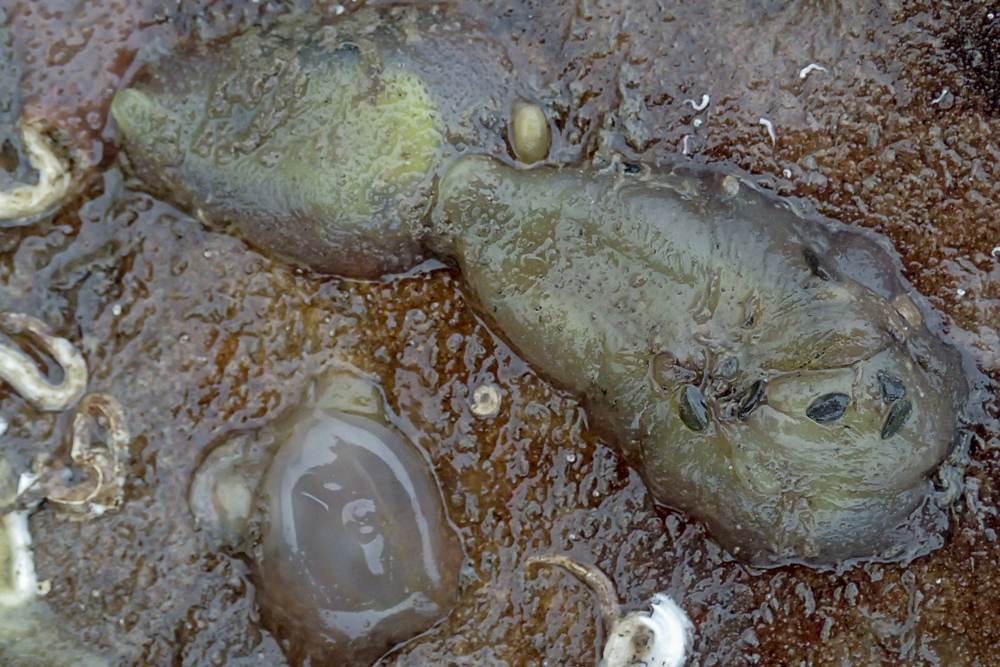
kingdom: Animalia
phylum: Chordata
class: Ascidiacea
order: Phlebobranchia
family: Ascidiidae
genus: Ascidia
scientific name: Ascidia conchilega
